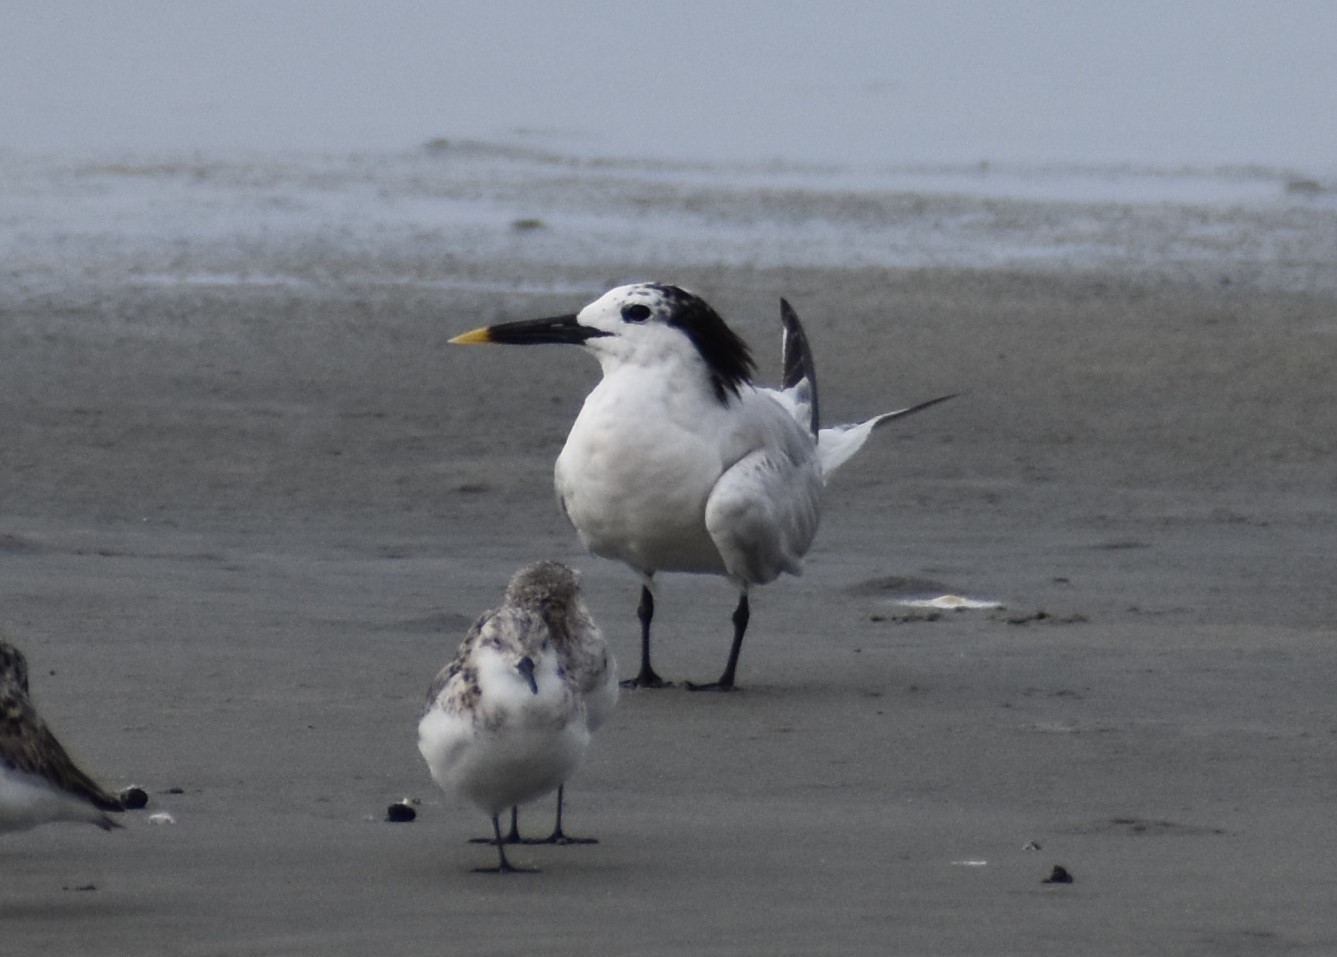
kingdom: Animalia
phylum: Chordata
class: Aves
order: Charadriiformes
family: Laridae
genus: Thalasseus
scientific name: Thalasseus sandvicensis
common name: Sandwich tern
